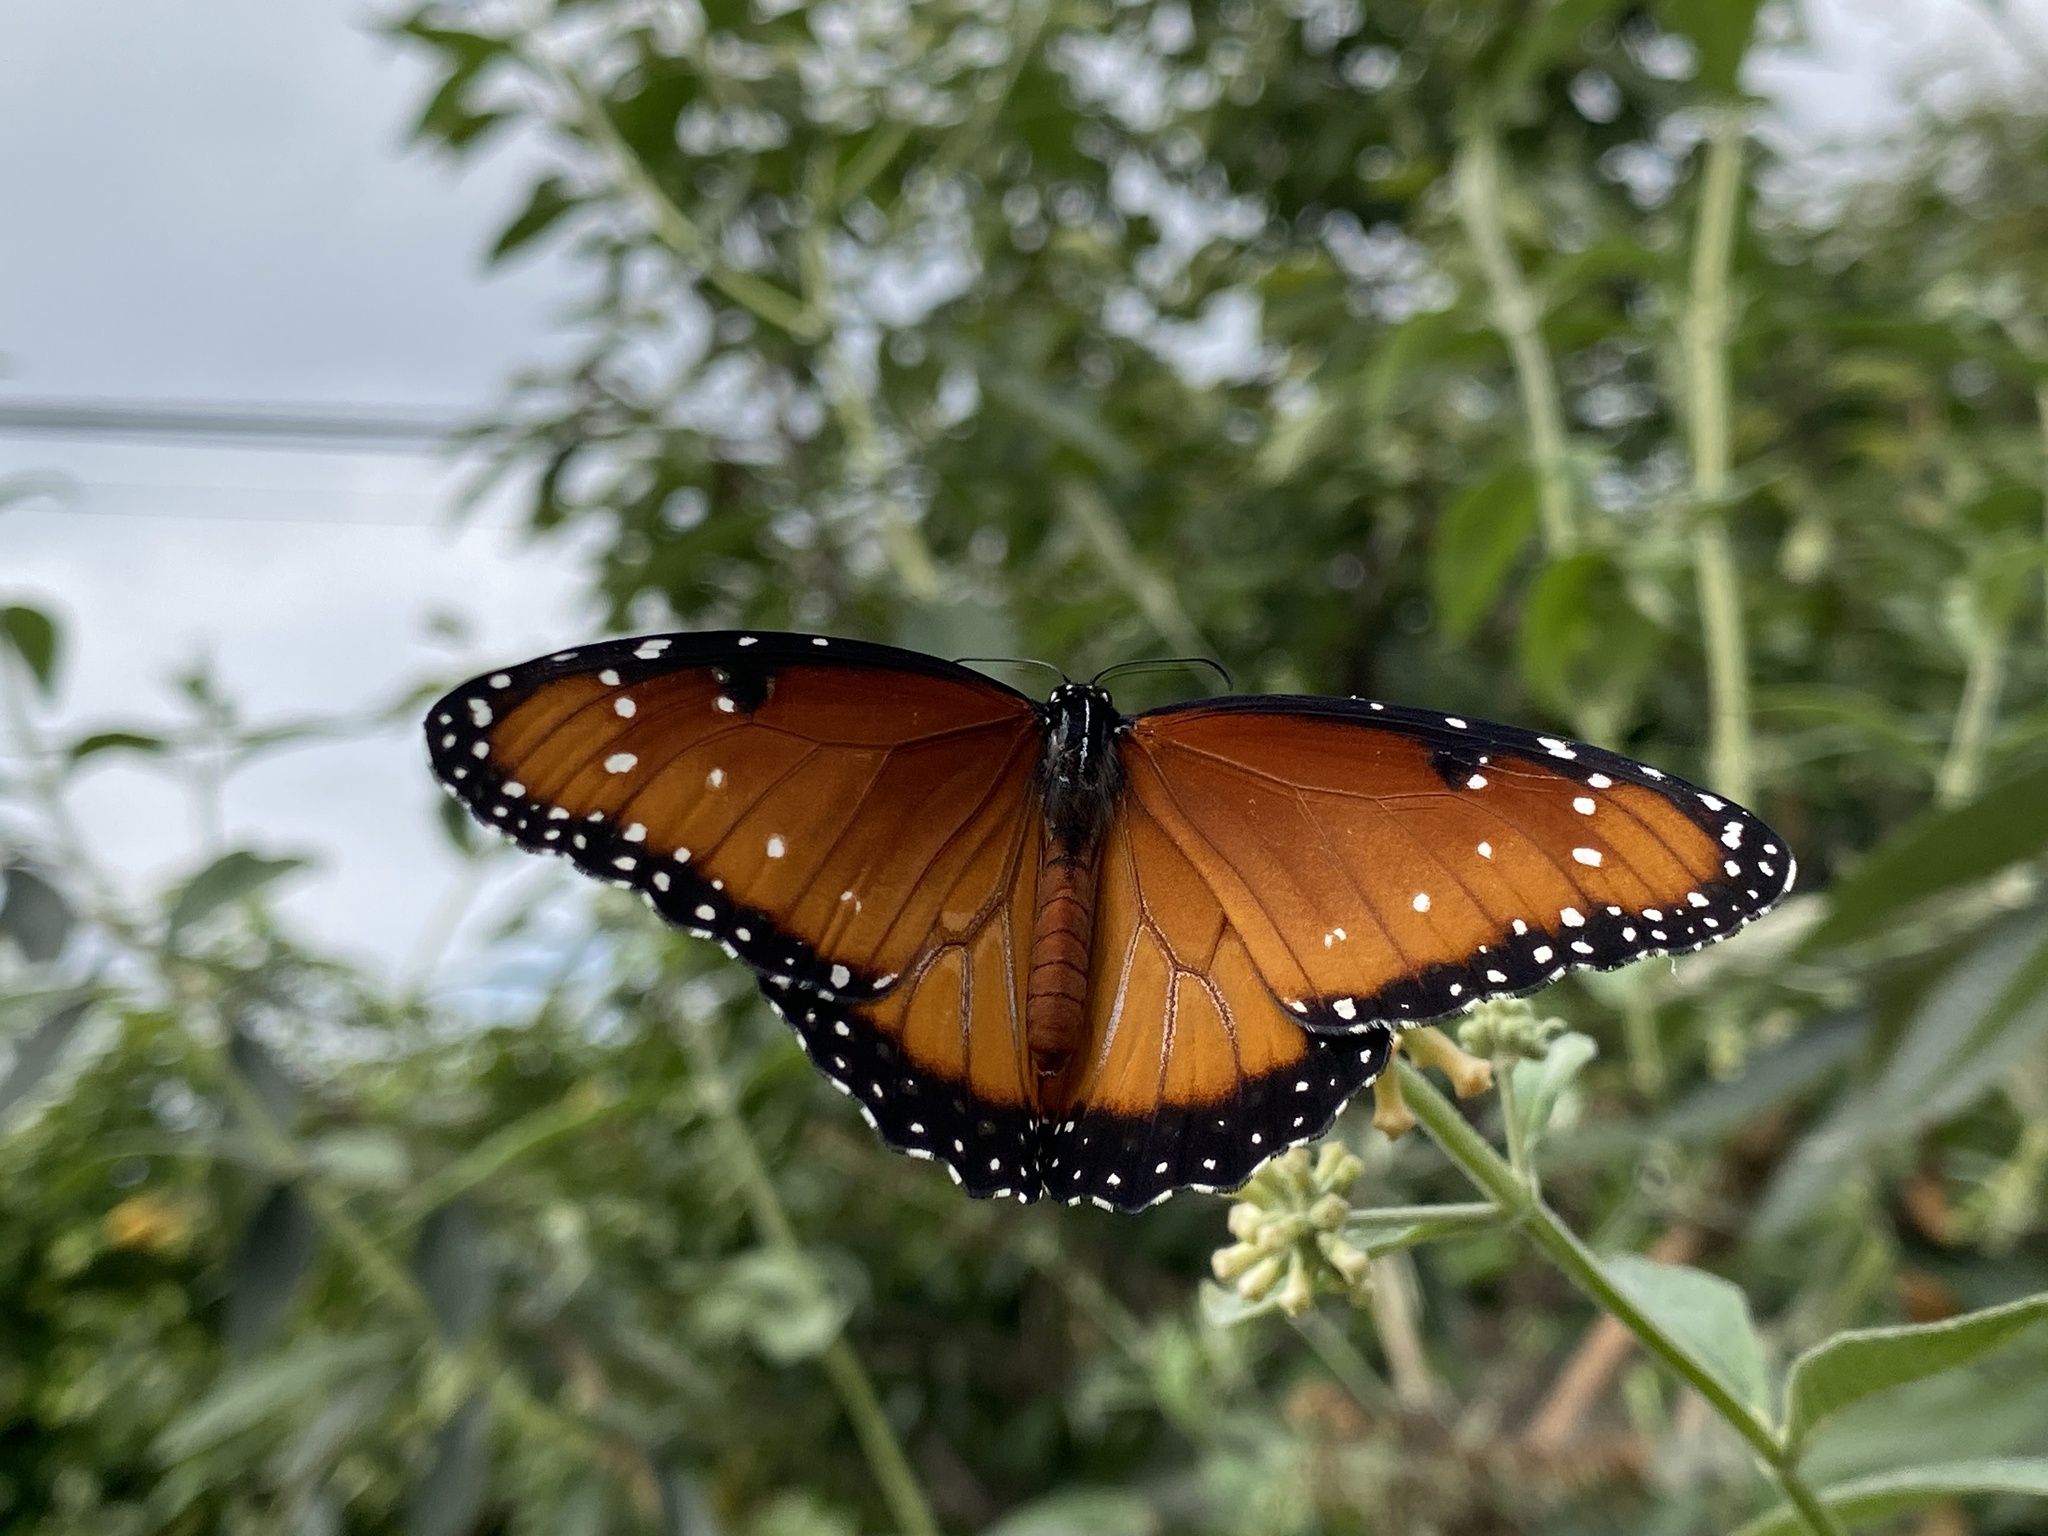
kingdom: Animalia
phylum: Arthropoda
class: Insecta
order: Lepidoptera
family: Nymphalidae
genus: Danaus
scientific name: Danaus gilippus
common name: Queen
